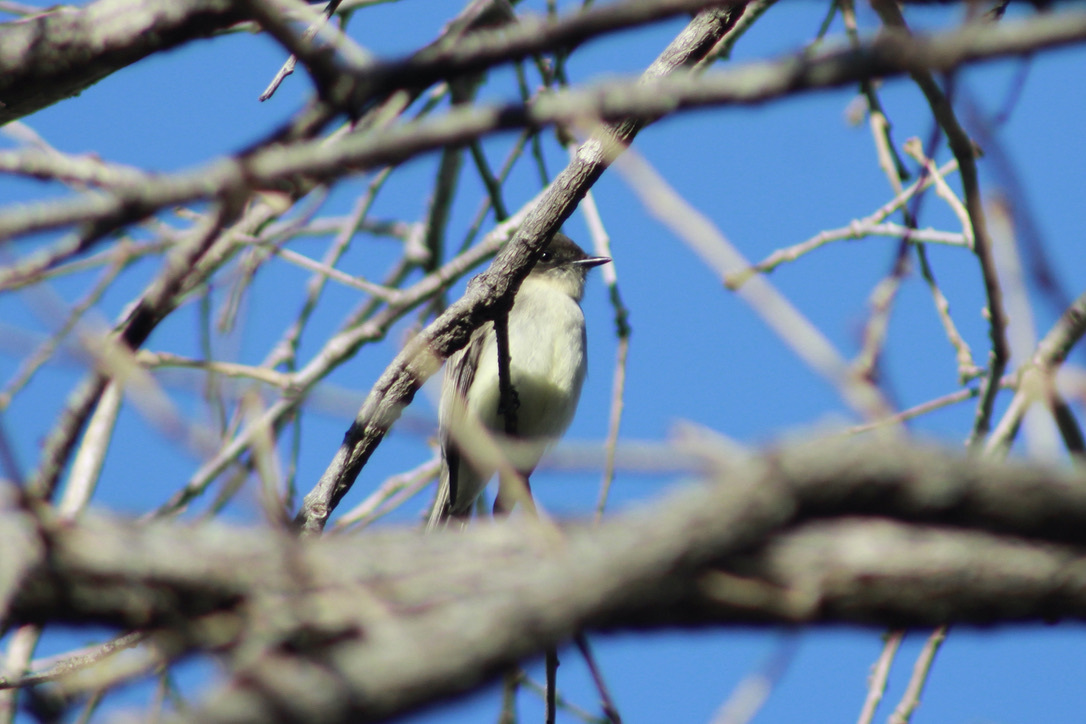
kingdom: Animalia
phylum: Chordata
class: Aves
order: Passeriformes
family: Tyrannidae
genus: Sayornis
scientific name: Sayornis phoebe
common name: Eastern phoebe
